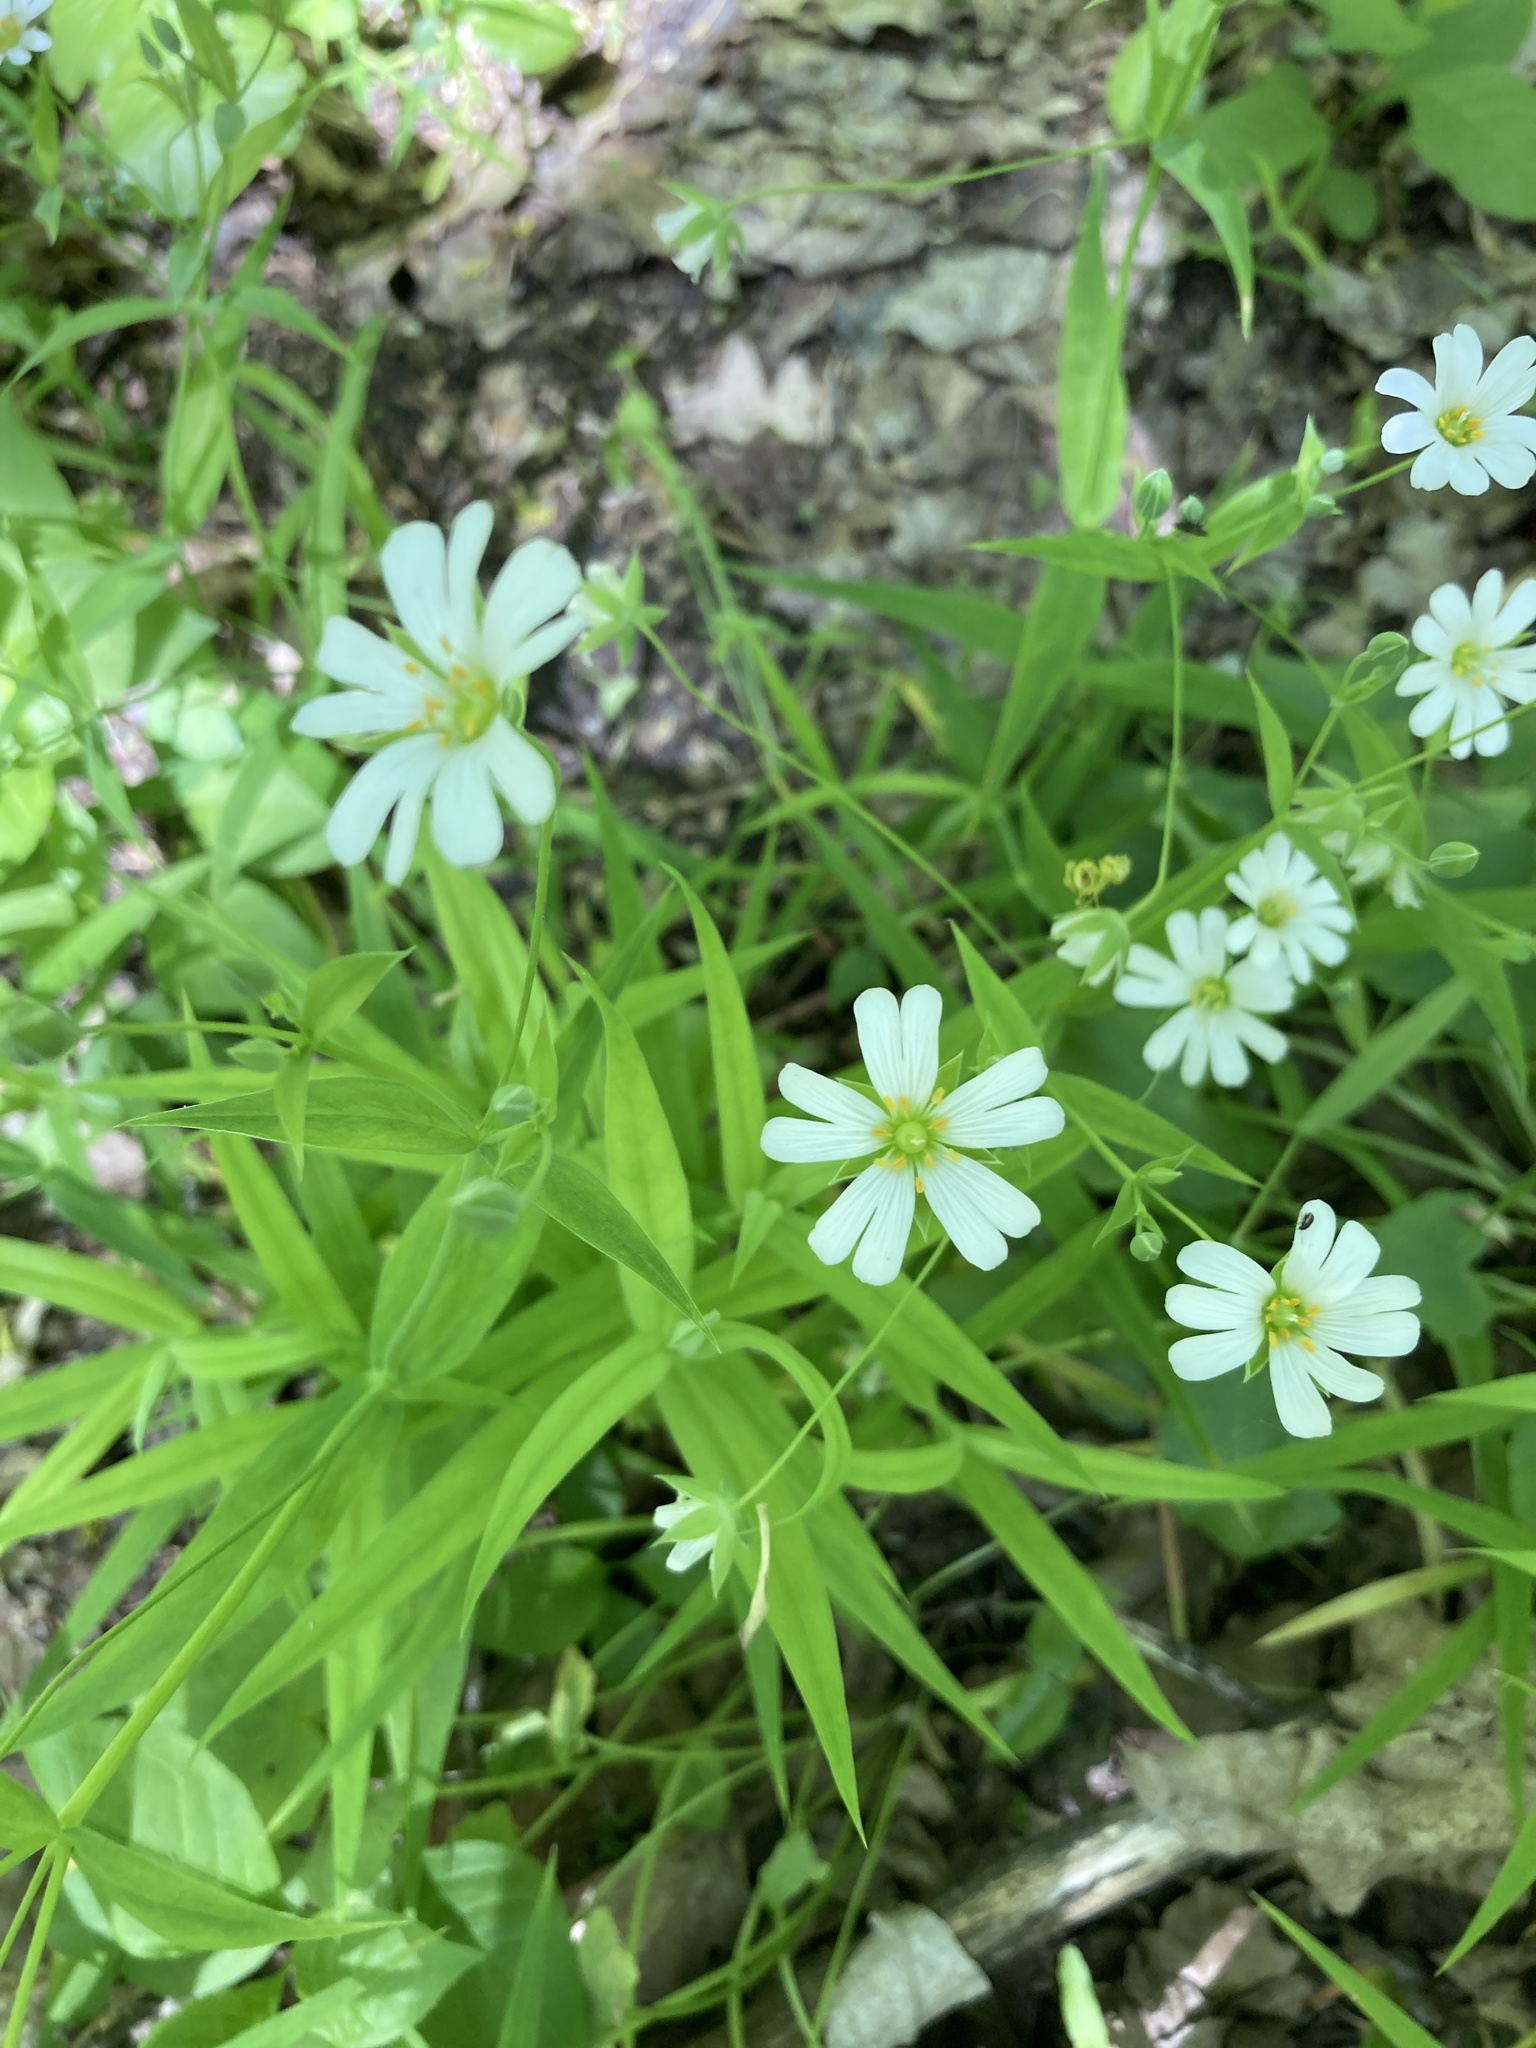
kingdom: Plantae
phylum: Tracheophyta
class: Magnoliopsida
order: Caryophyllales
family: Caryophyllaceae
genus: Rabelera
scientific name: Rabelera holostea
